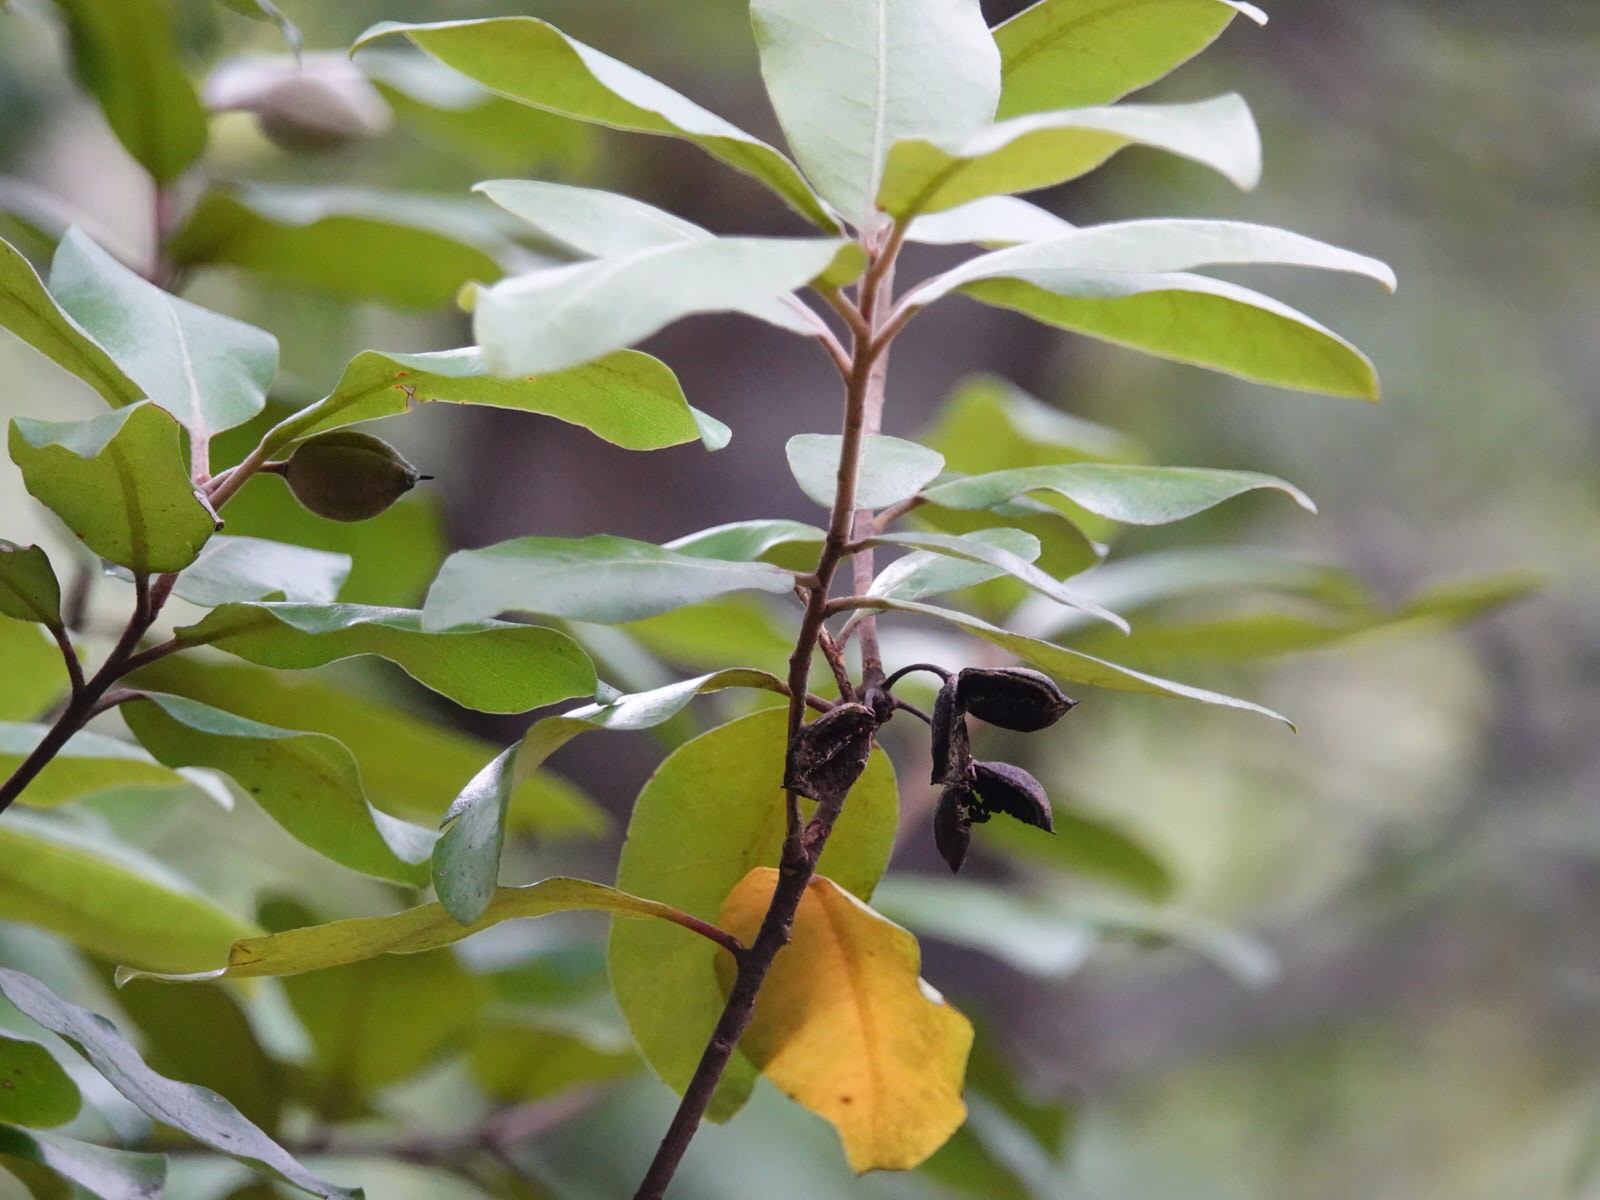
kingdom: Plantae
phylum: Tracheophyta
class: Magnoliopsida
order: Apiales
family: Pittosporaceae
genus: Pittosporum
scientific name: Pittosporum ellipticum
